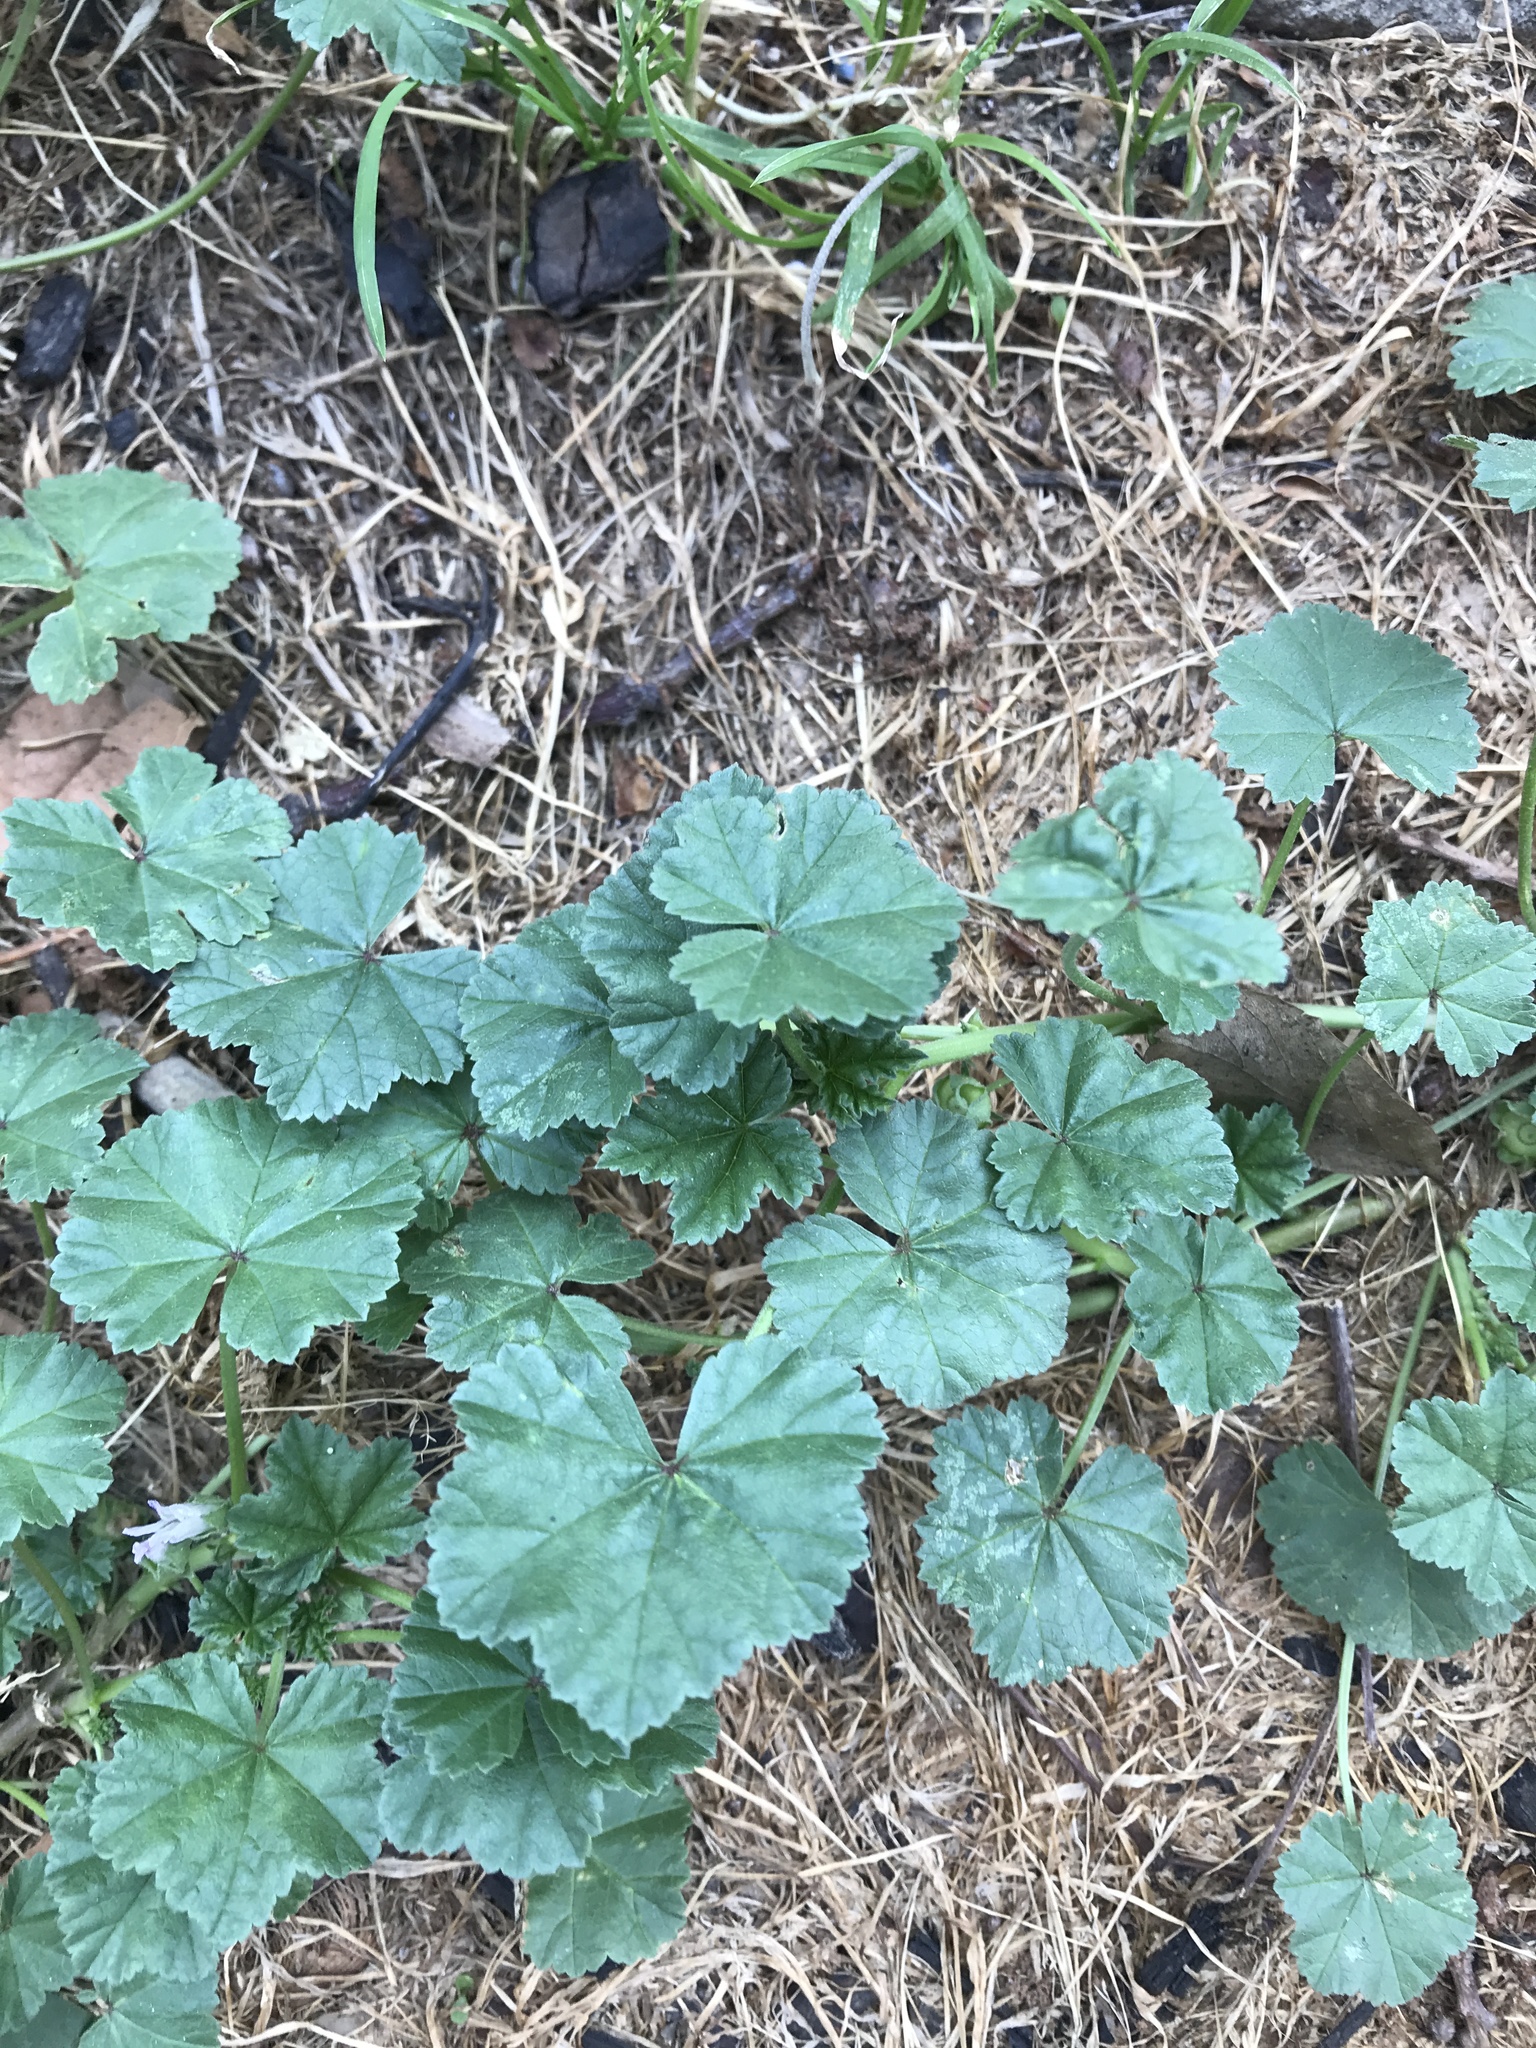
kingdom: Plantae
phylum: Tracheophyta
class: Magnoliopsida
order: Malvales
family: Malvaceae
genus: Malva
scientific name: Malva neglecta
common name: Common mallow
